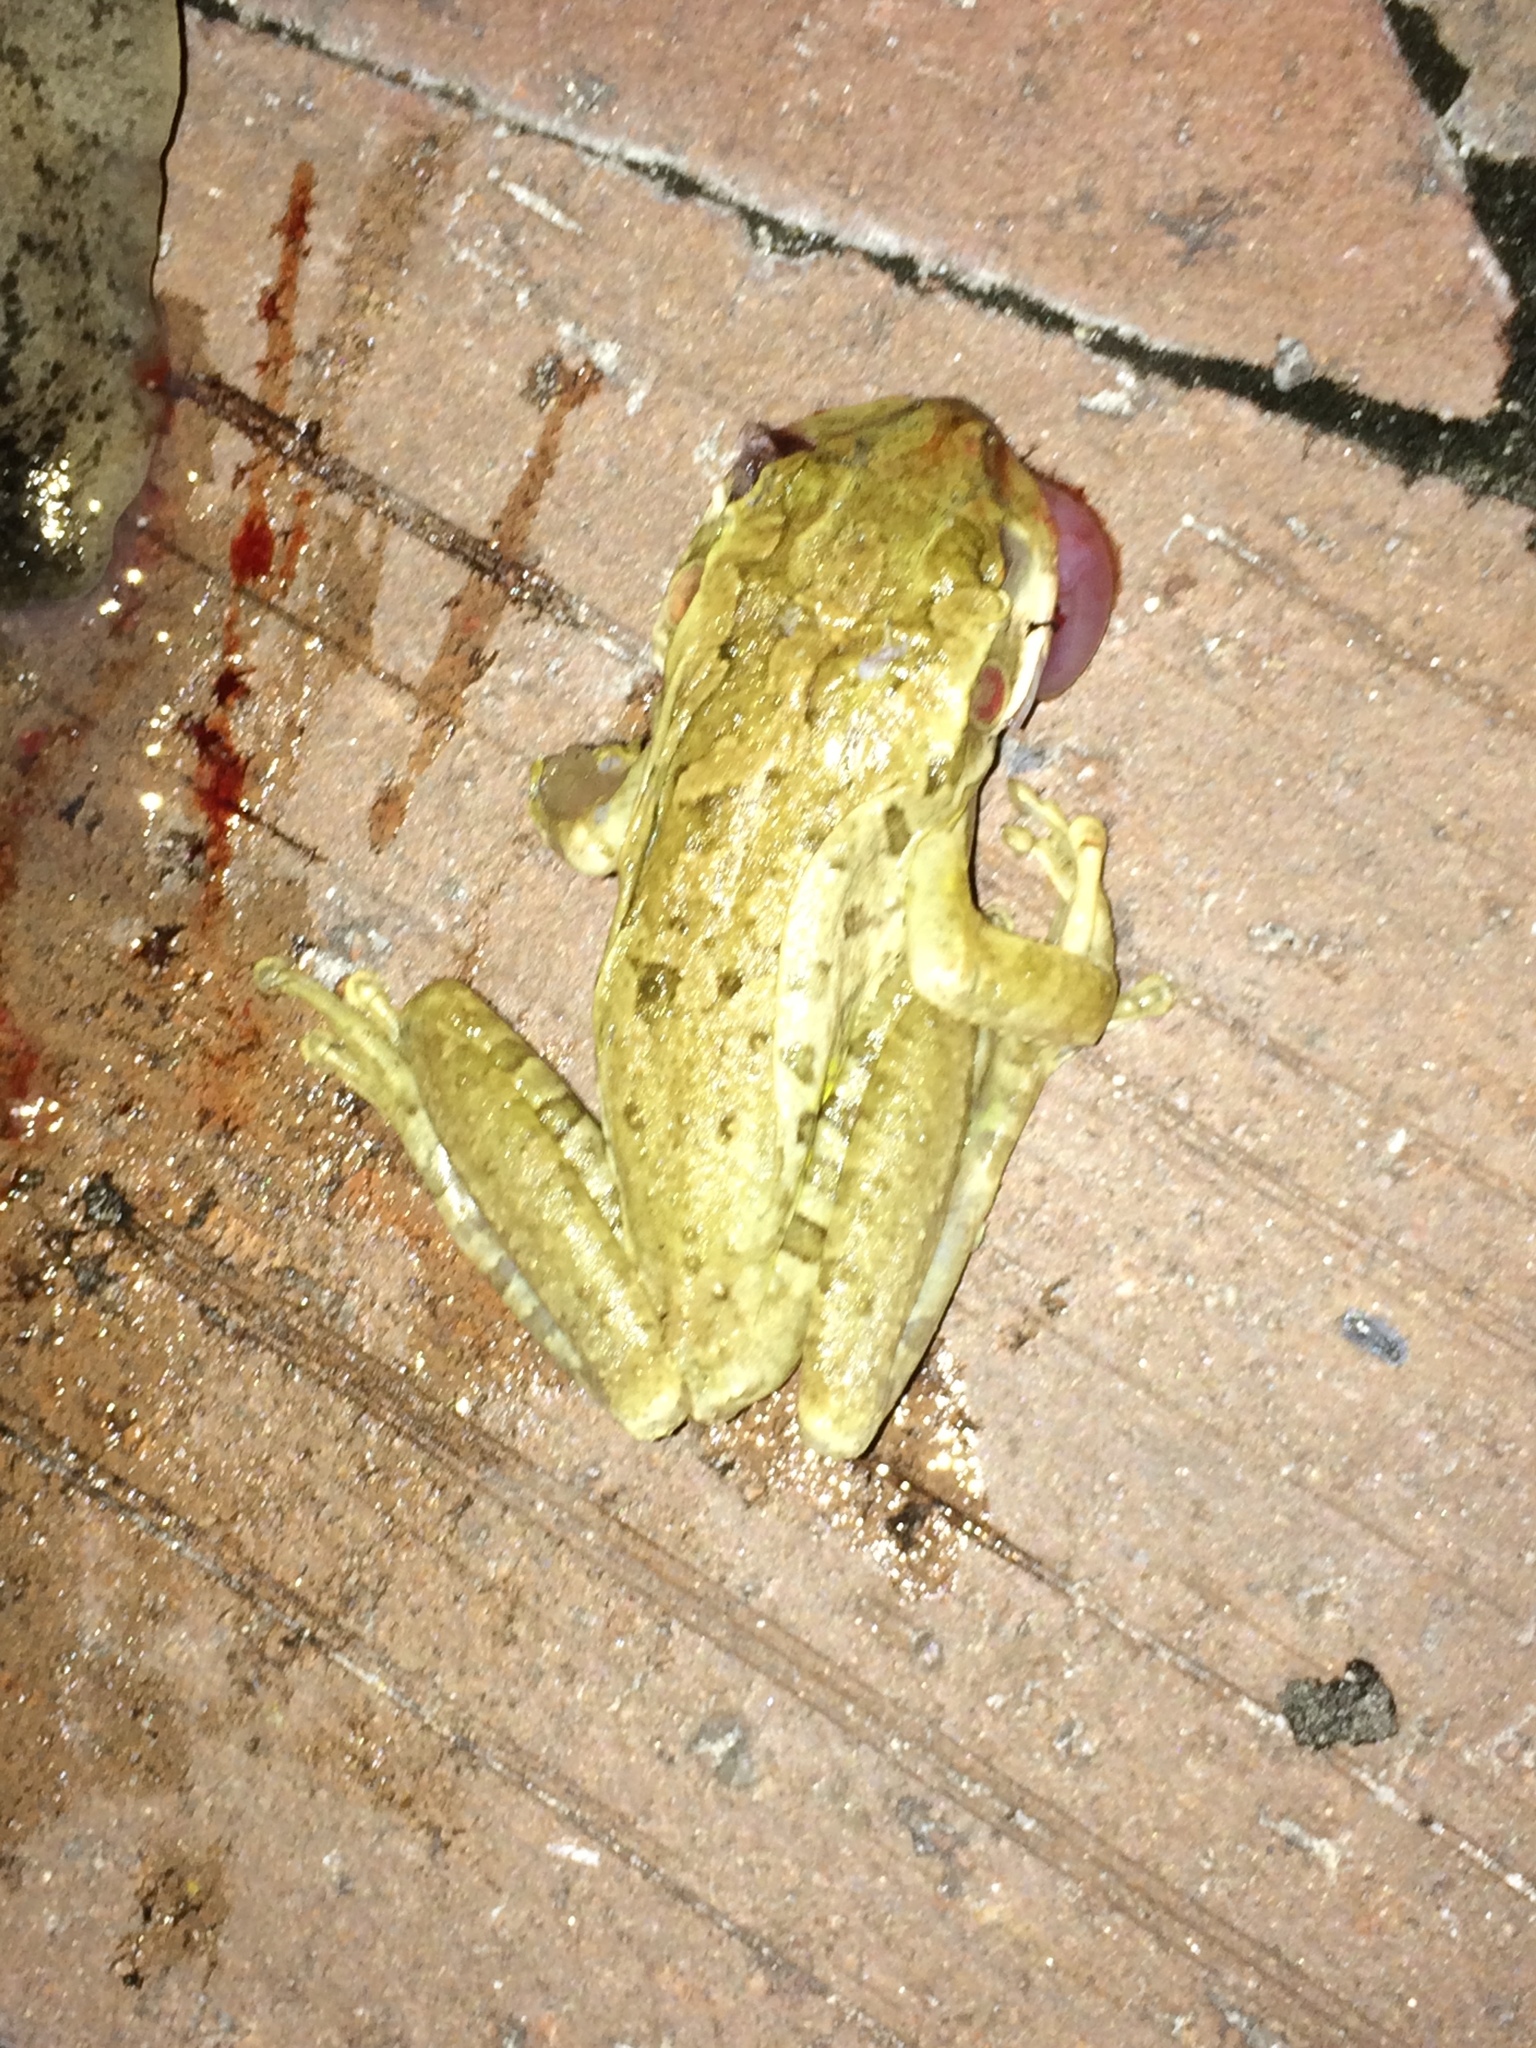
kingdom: Animalia
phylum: Chordata
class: Amphibia
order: Anura
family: Hylidae
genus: Osteopilus
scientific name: Osteopilus septentrionalis
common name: Cuban treefrog
